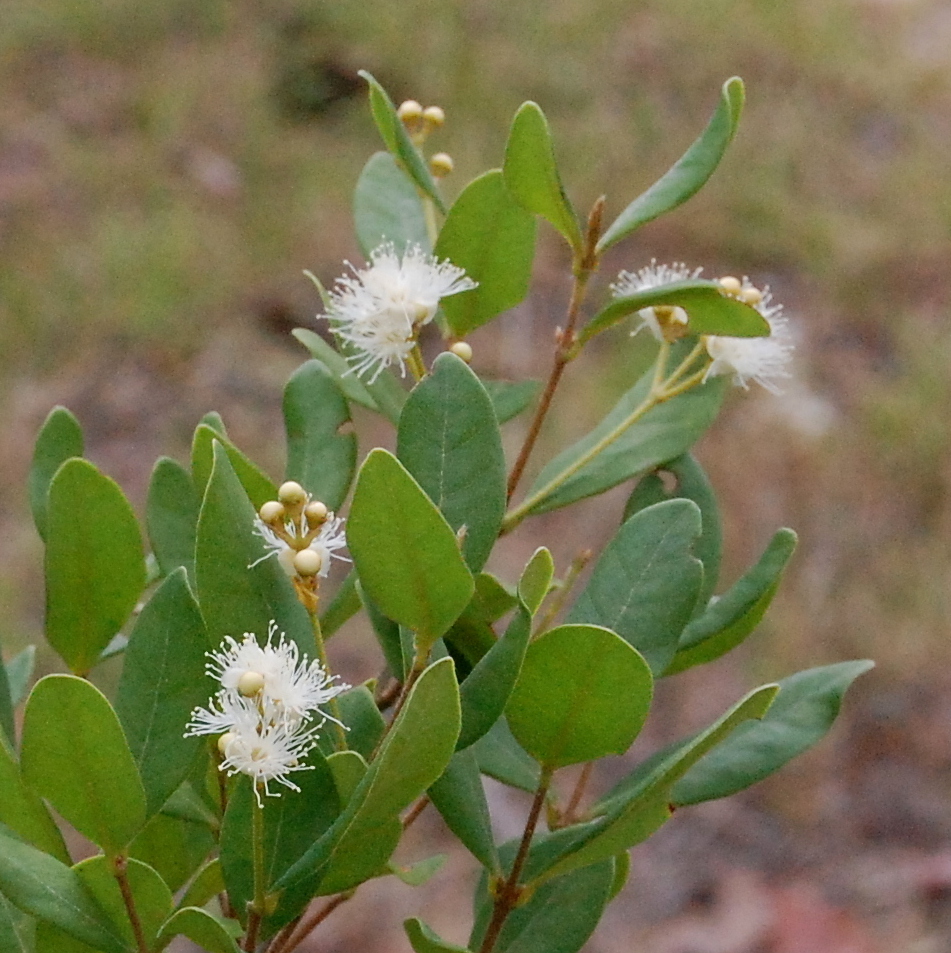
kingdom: Plantae
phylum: Tracheophyta
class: Magnoliopsida
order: Myrtales
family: Myrtaceae
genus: Myrcia
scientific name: Myrcia palustris
